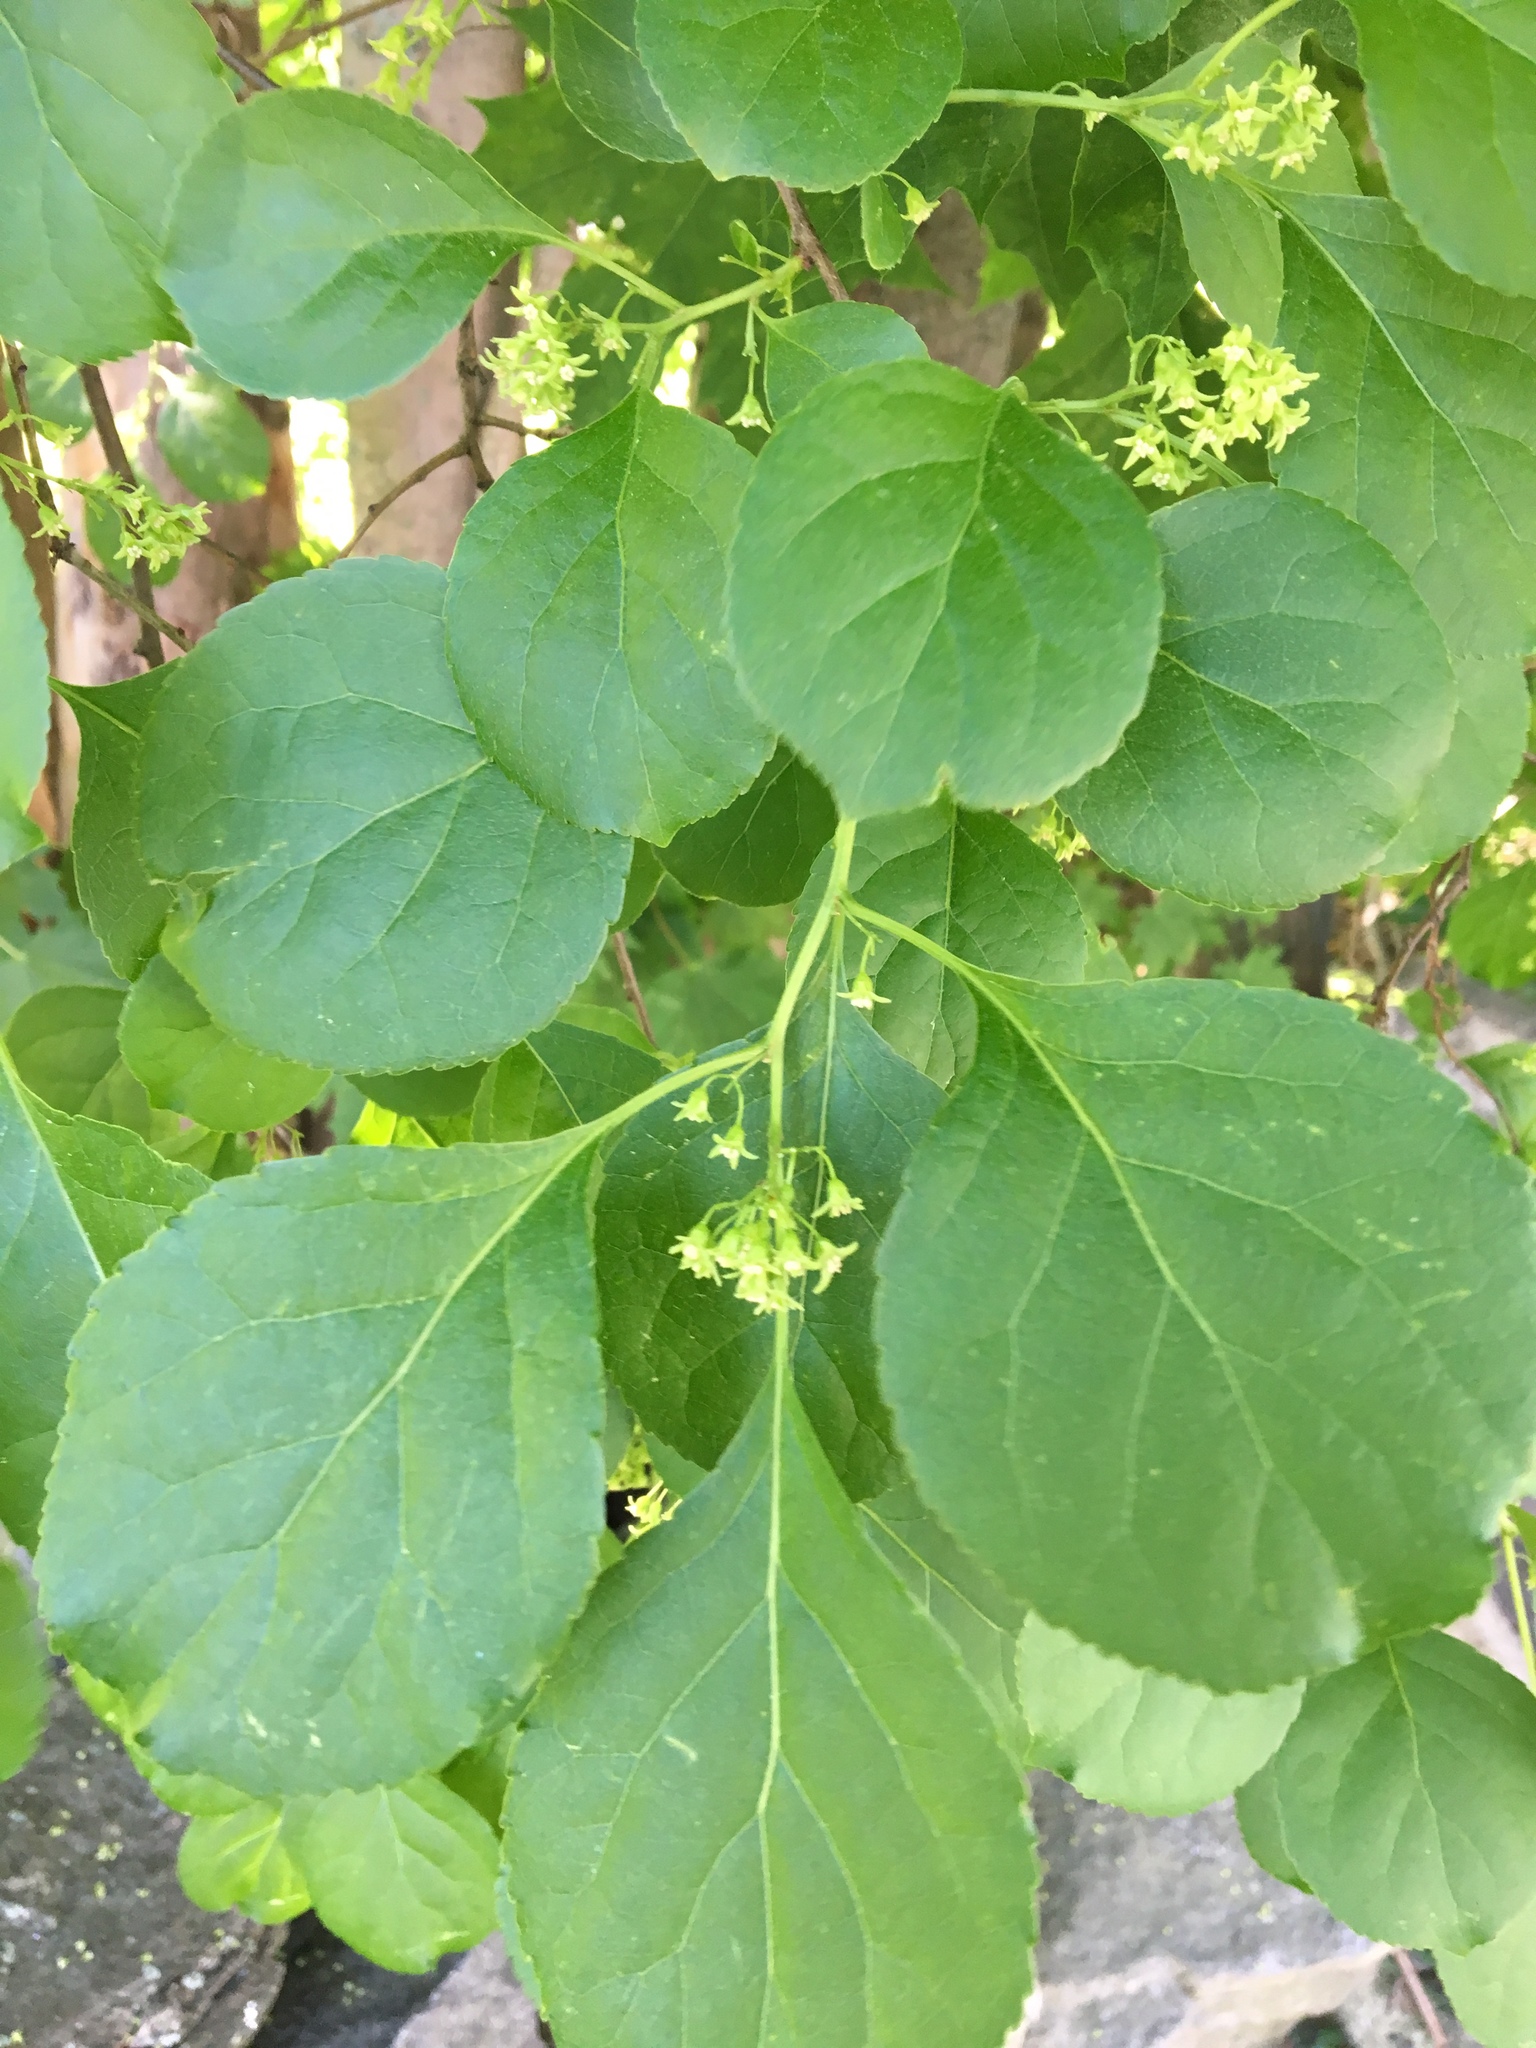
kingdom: Plantae
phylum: Tracheophyta
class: Magnoliopsida
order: Celastrales
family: Celastraceae
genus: Celastrus
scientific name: Celastrus orbiculatus
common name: Oriental bittersweet
